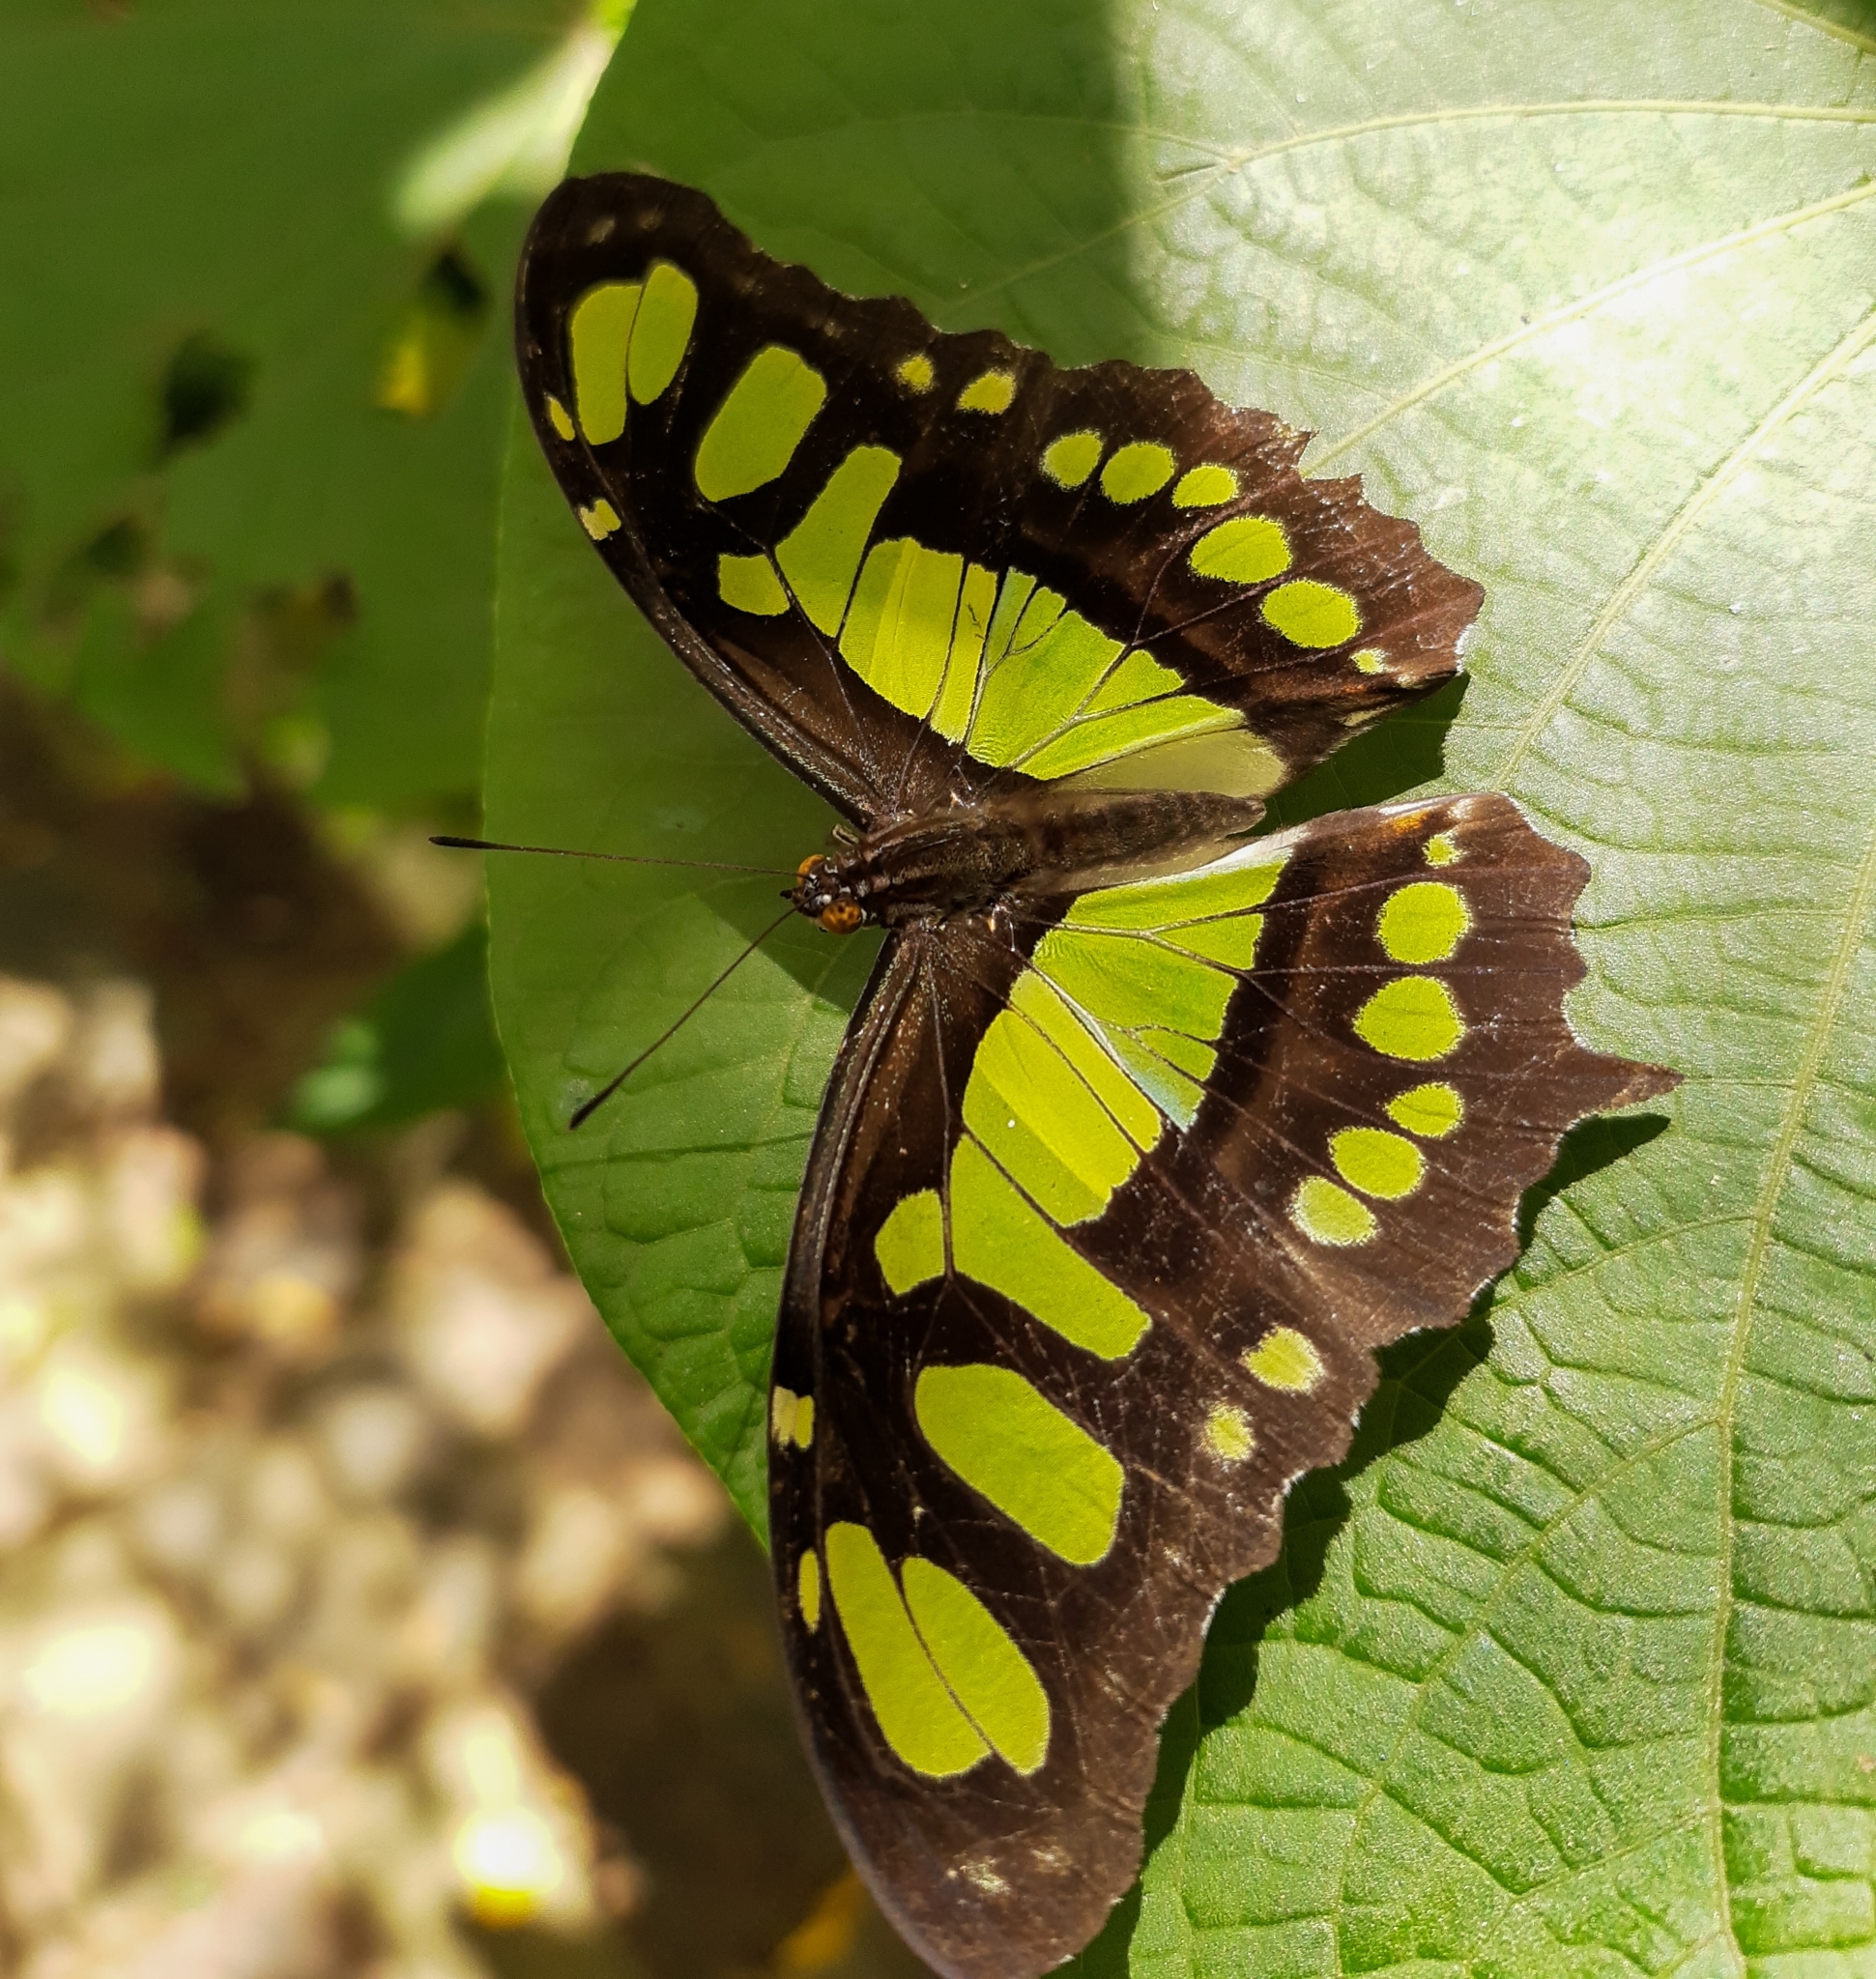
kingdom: Animalia
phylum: Arthropoda
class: Insecta
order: Lepidoptera
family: Nymphalidae
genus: Siproeta
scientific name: Siproeta stelenes
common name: Malachite
